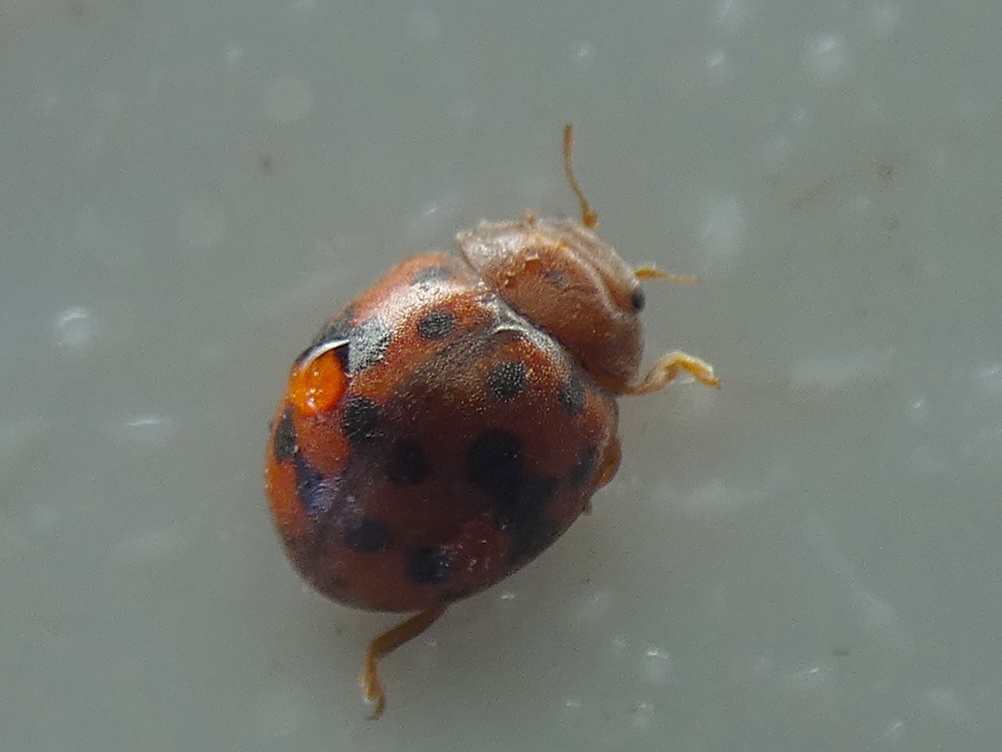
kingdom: Animalia
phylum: Arthropoda
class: Insecta
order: Coleoptera
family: Coccinellidae
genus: Subcoccinella
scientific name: Subcoccinella vigintiquatuorpunctata
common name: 24-spot ladybird
